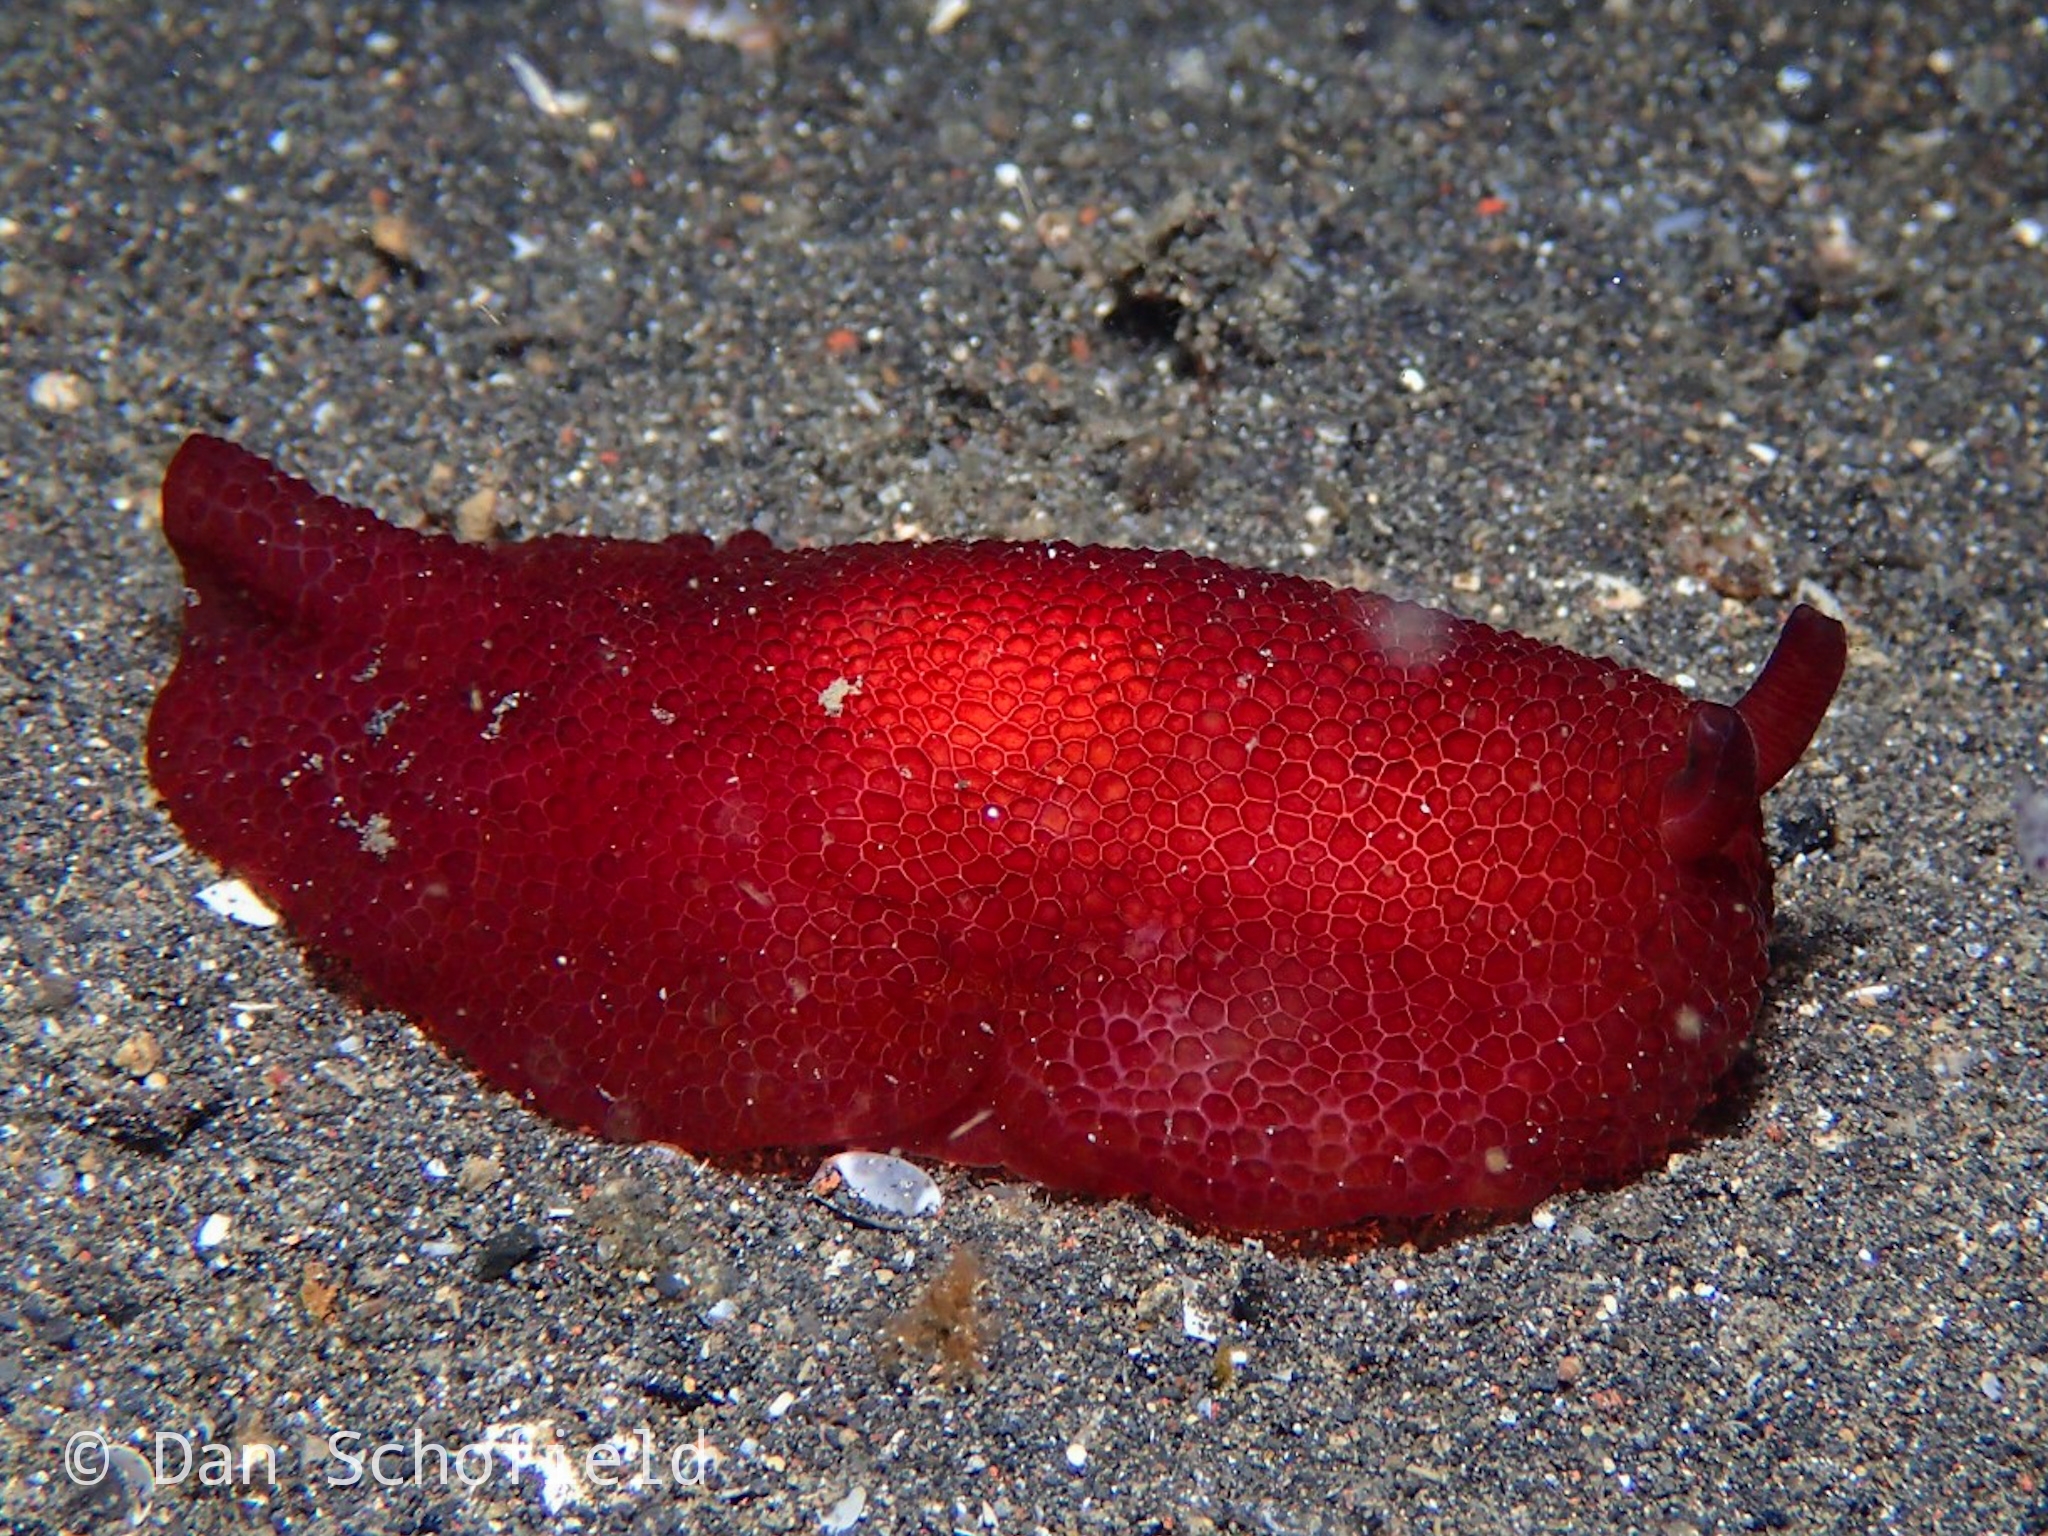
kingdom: Animalia
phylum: Mollusca
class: Gastropoda
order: Pleurobranchida
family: Pleurobranchidae
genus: Pleurobranchus
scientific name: Pleurobranchus peronii
